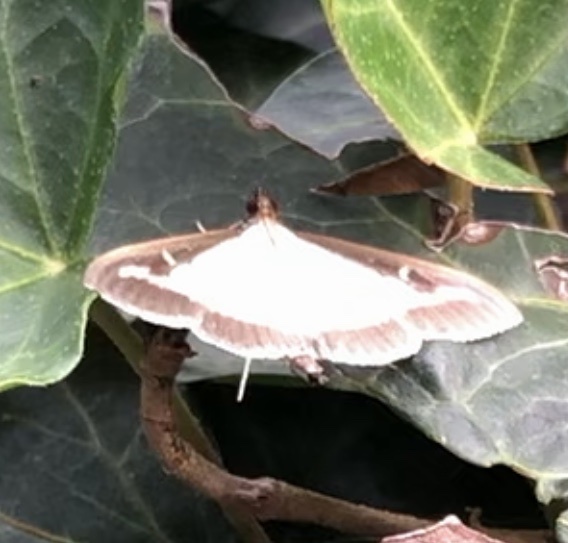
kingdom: Animalia
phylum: Arthropoda
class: Insecta
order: Lepidoptera
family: Crambidae
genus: Cydalima
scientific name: Cydalima perspectalis
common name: Box tree moth
